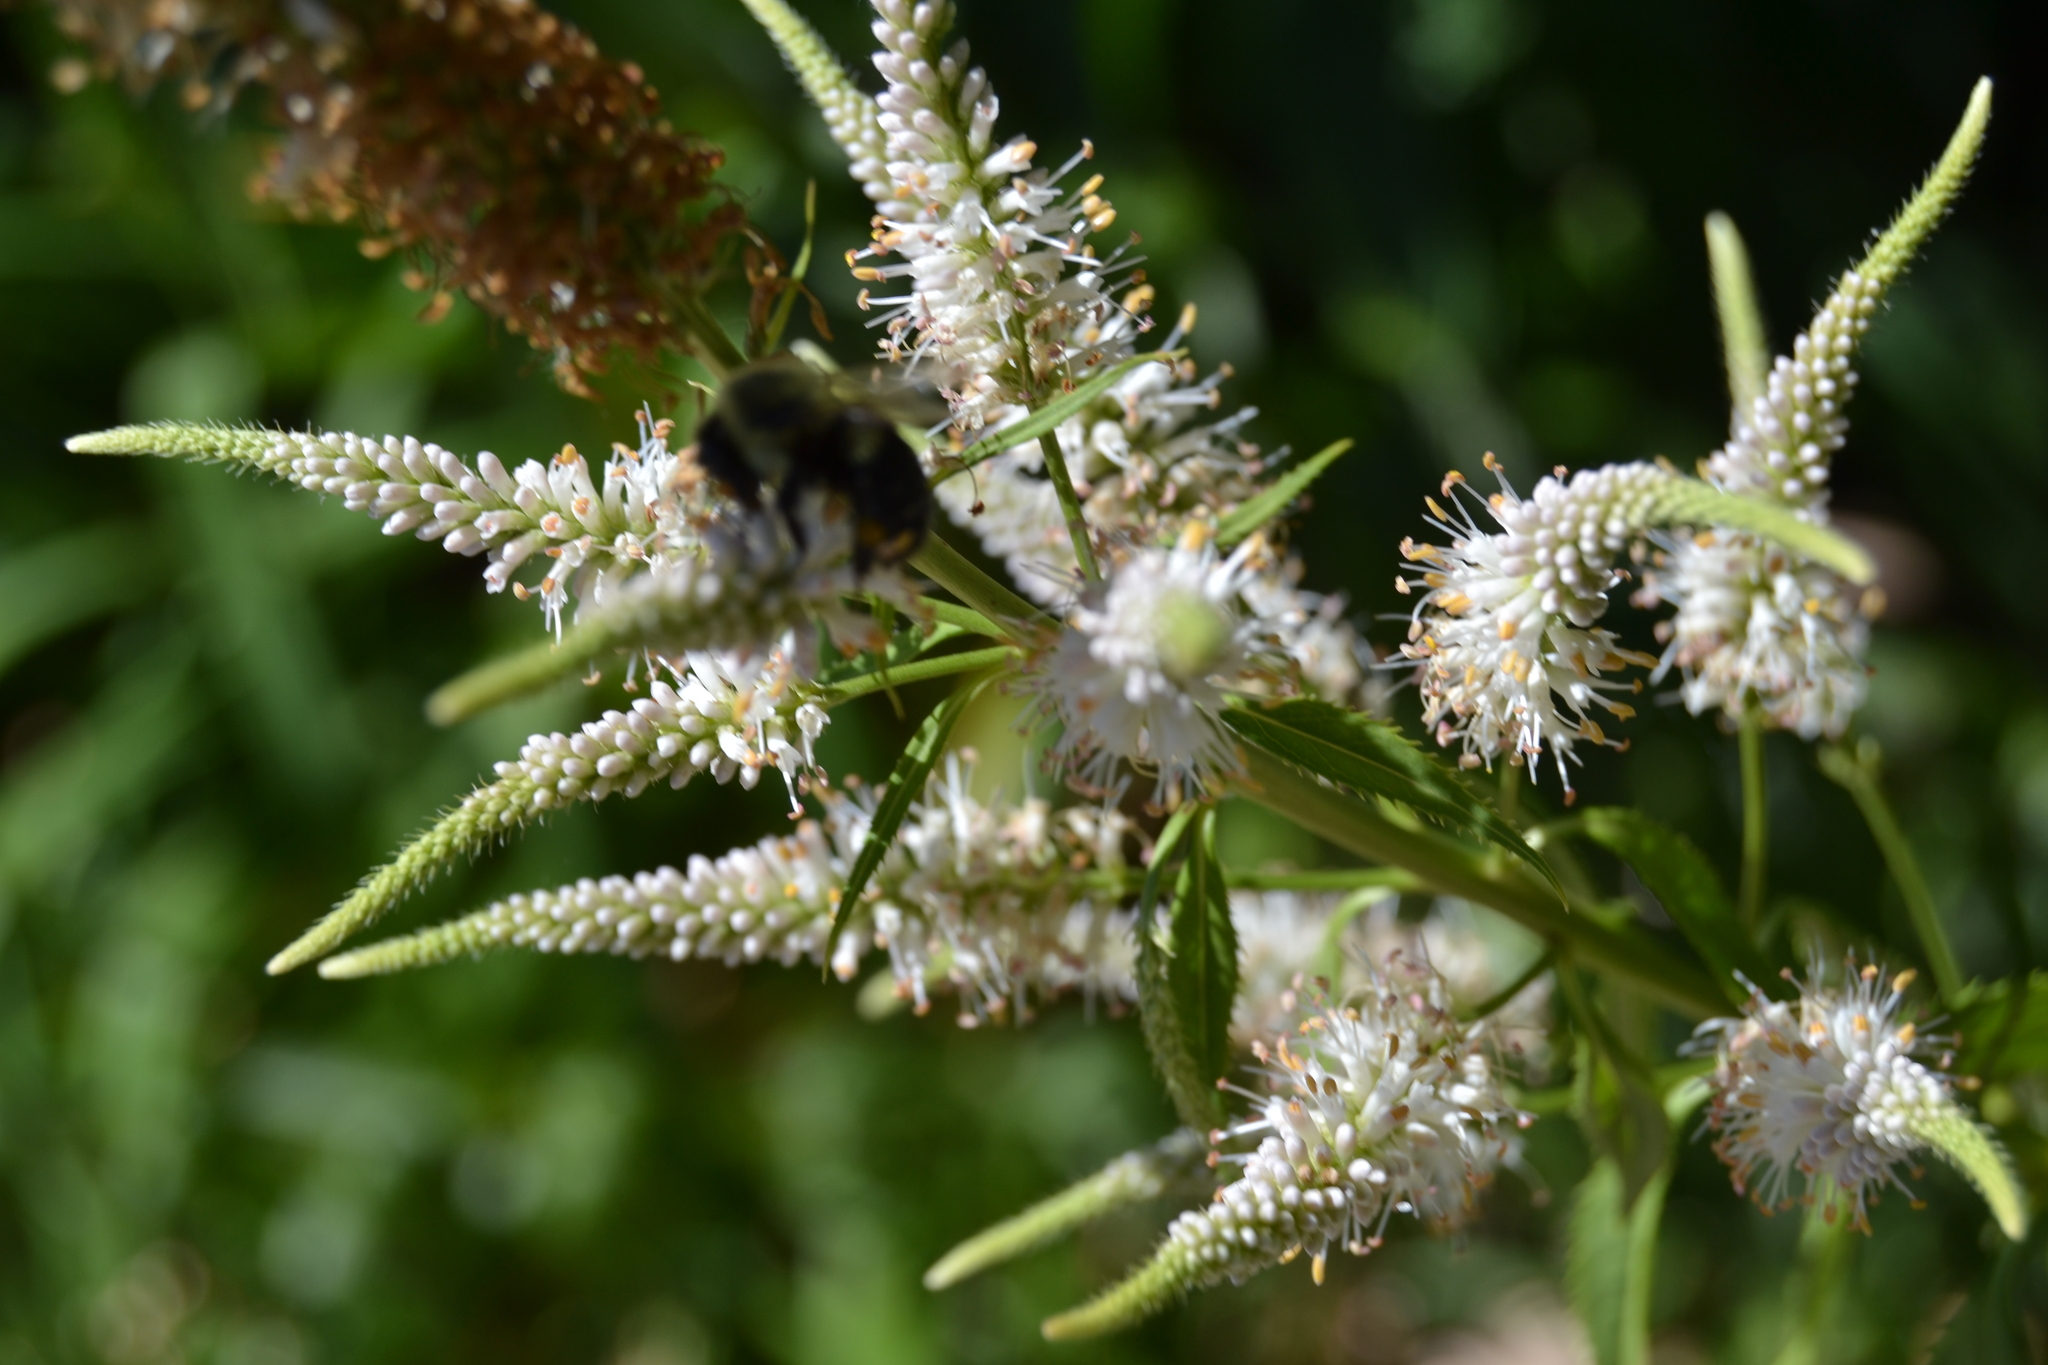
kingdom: Animalia
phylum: Arthropoda
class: Insecta
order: Hymenoptera
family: Apidae
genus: Bombus
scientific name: Bombus impatiens
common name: Common eastern bumble bee
